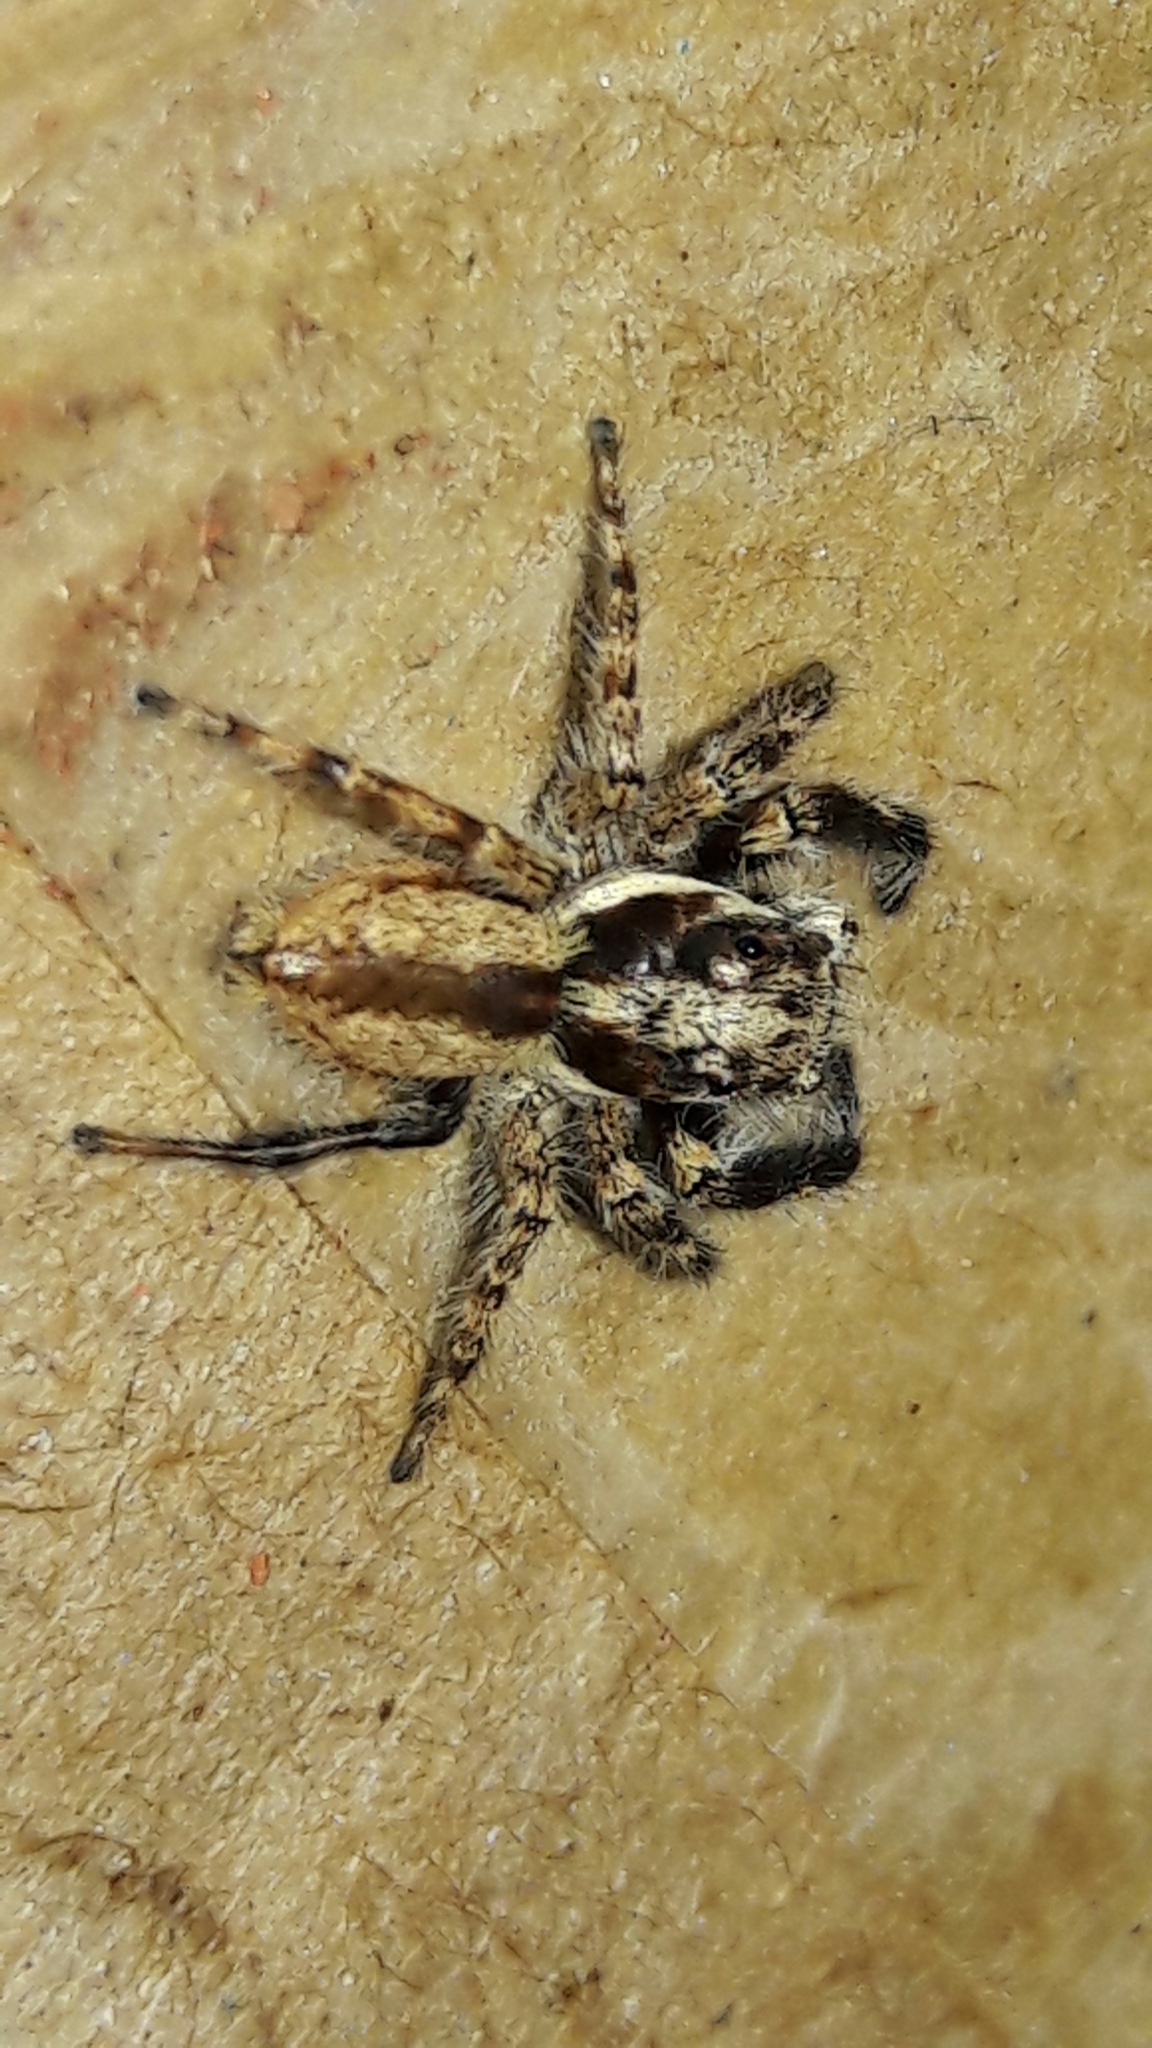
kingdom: Animalia
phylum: Arthropoda
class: Arachnida
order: Araneae
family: Salticidae
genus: Menemerus
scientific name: Menemerus bivittatus
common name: Gray wall jumper
